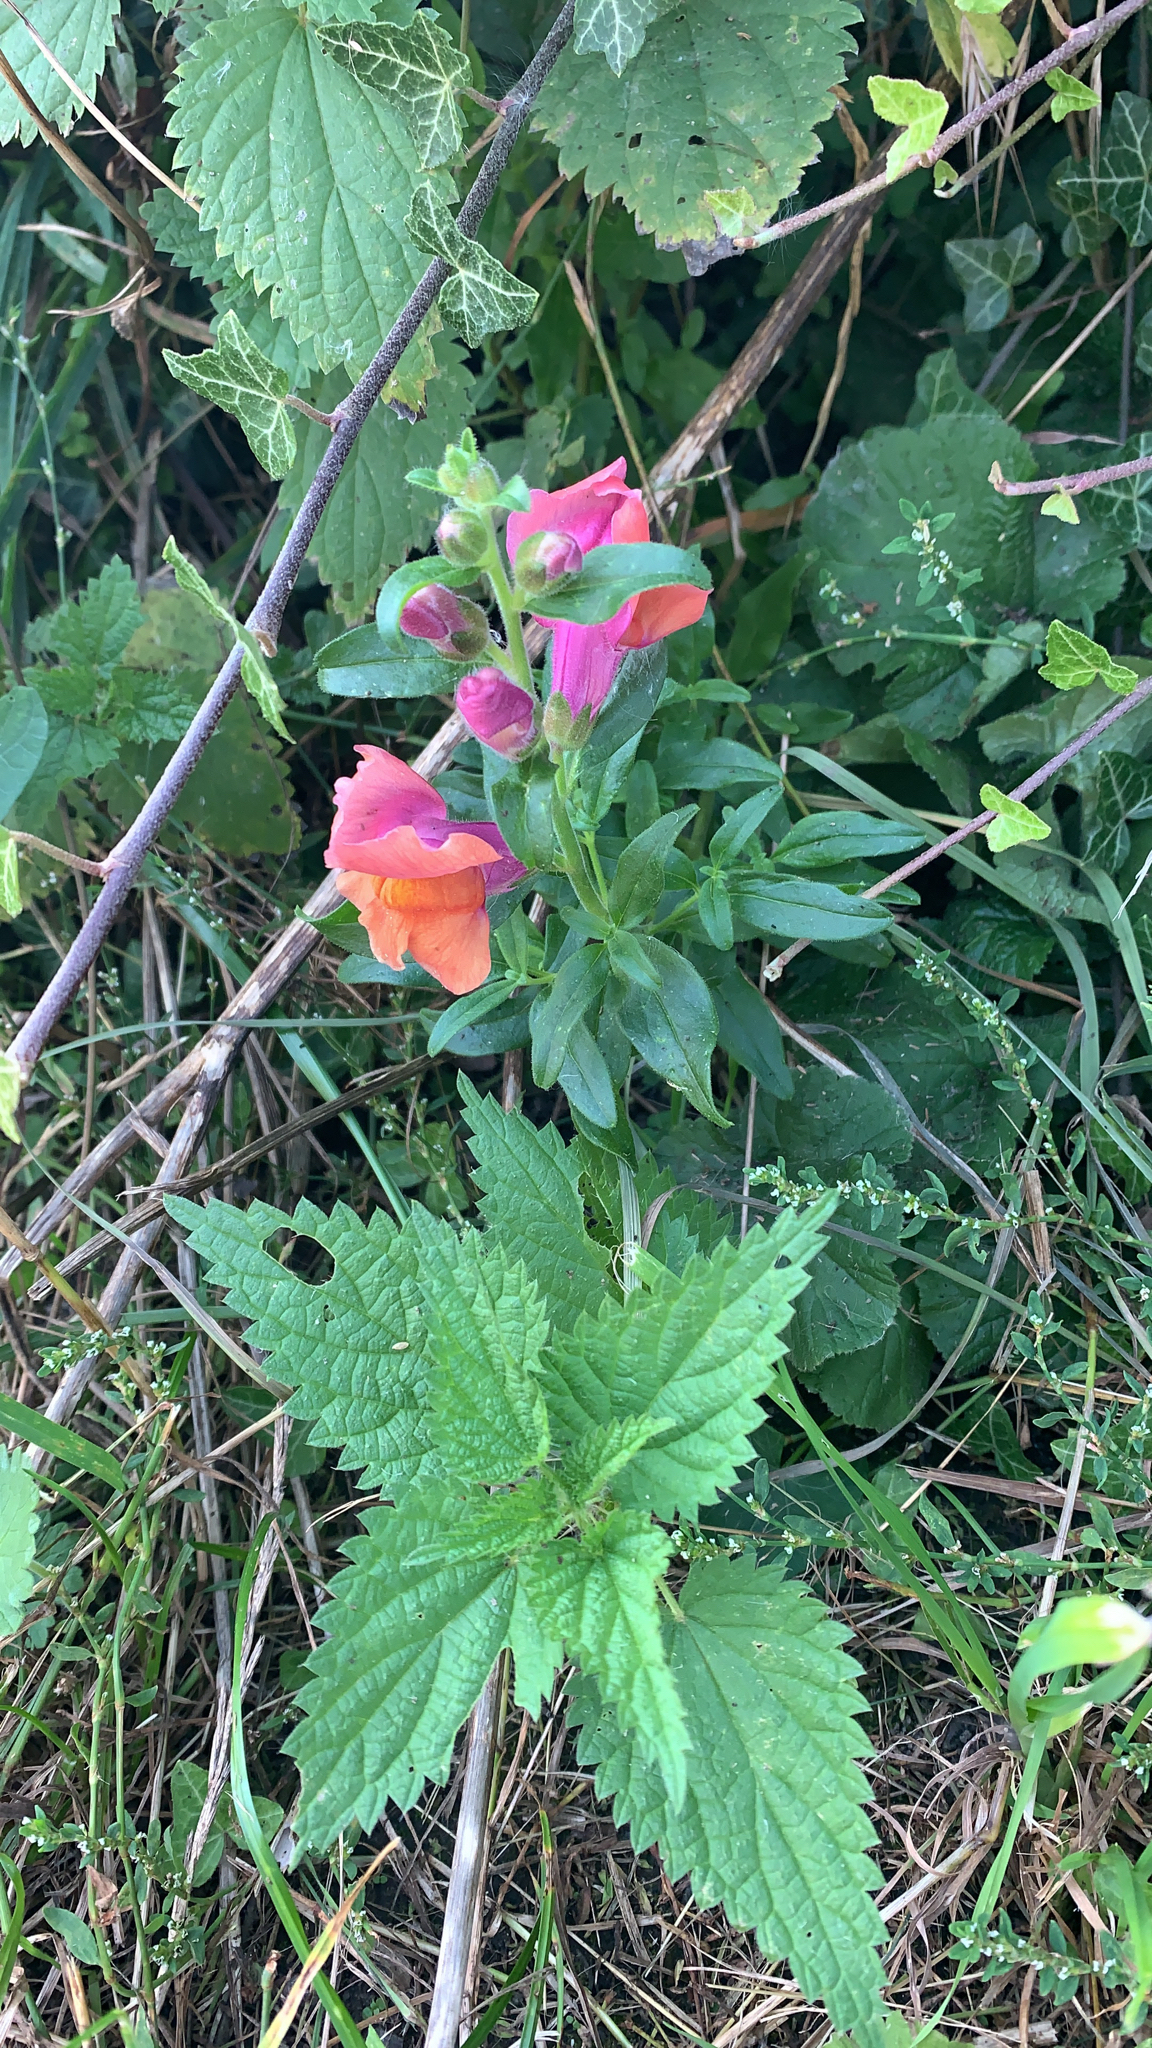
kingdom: Plantae
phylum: Tracheophyta
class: Magnoliopsida
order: Lamiales
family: Plantaginaceae
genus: Antirrhinum
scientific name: Antirrhinum majus
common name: Snapdragon
